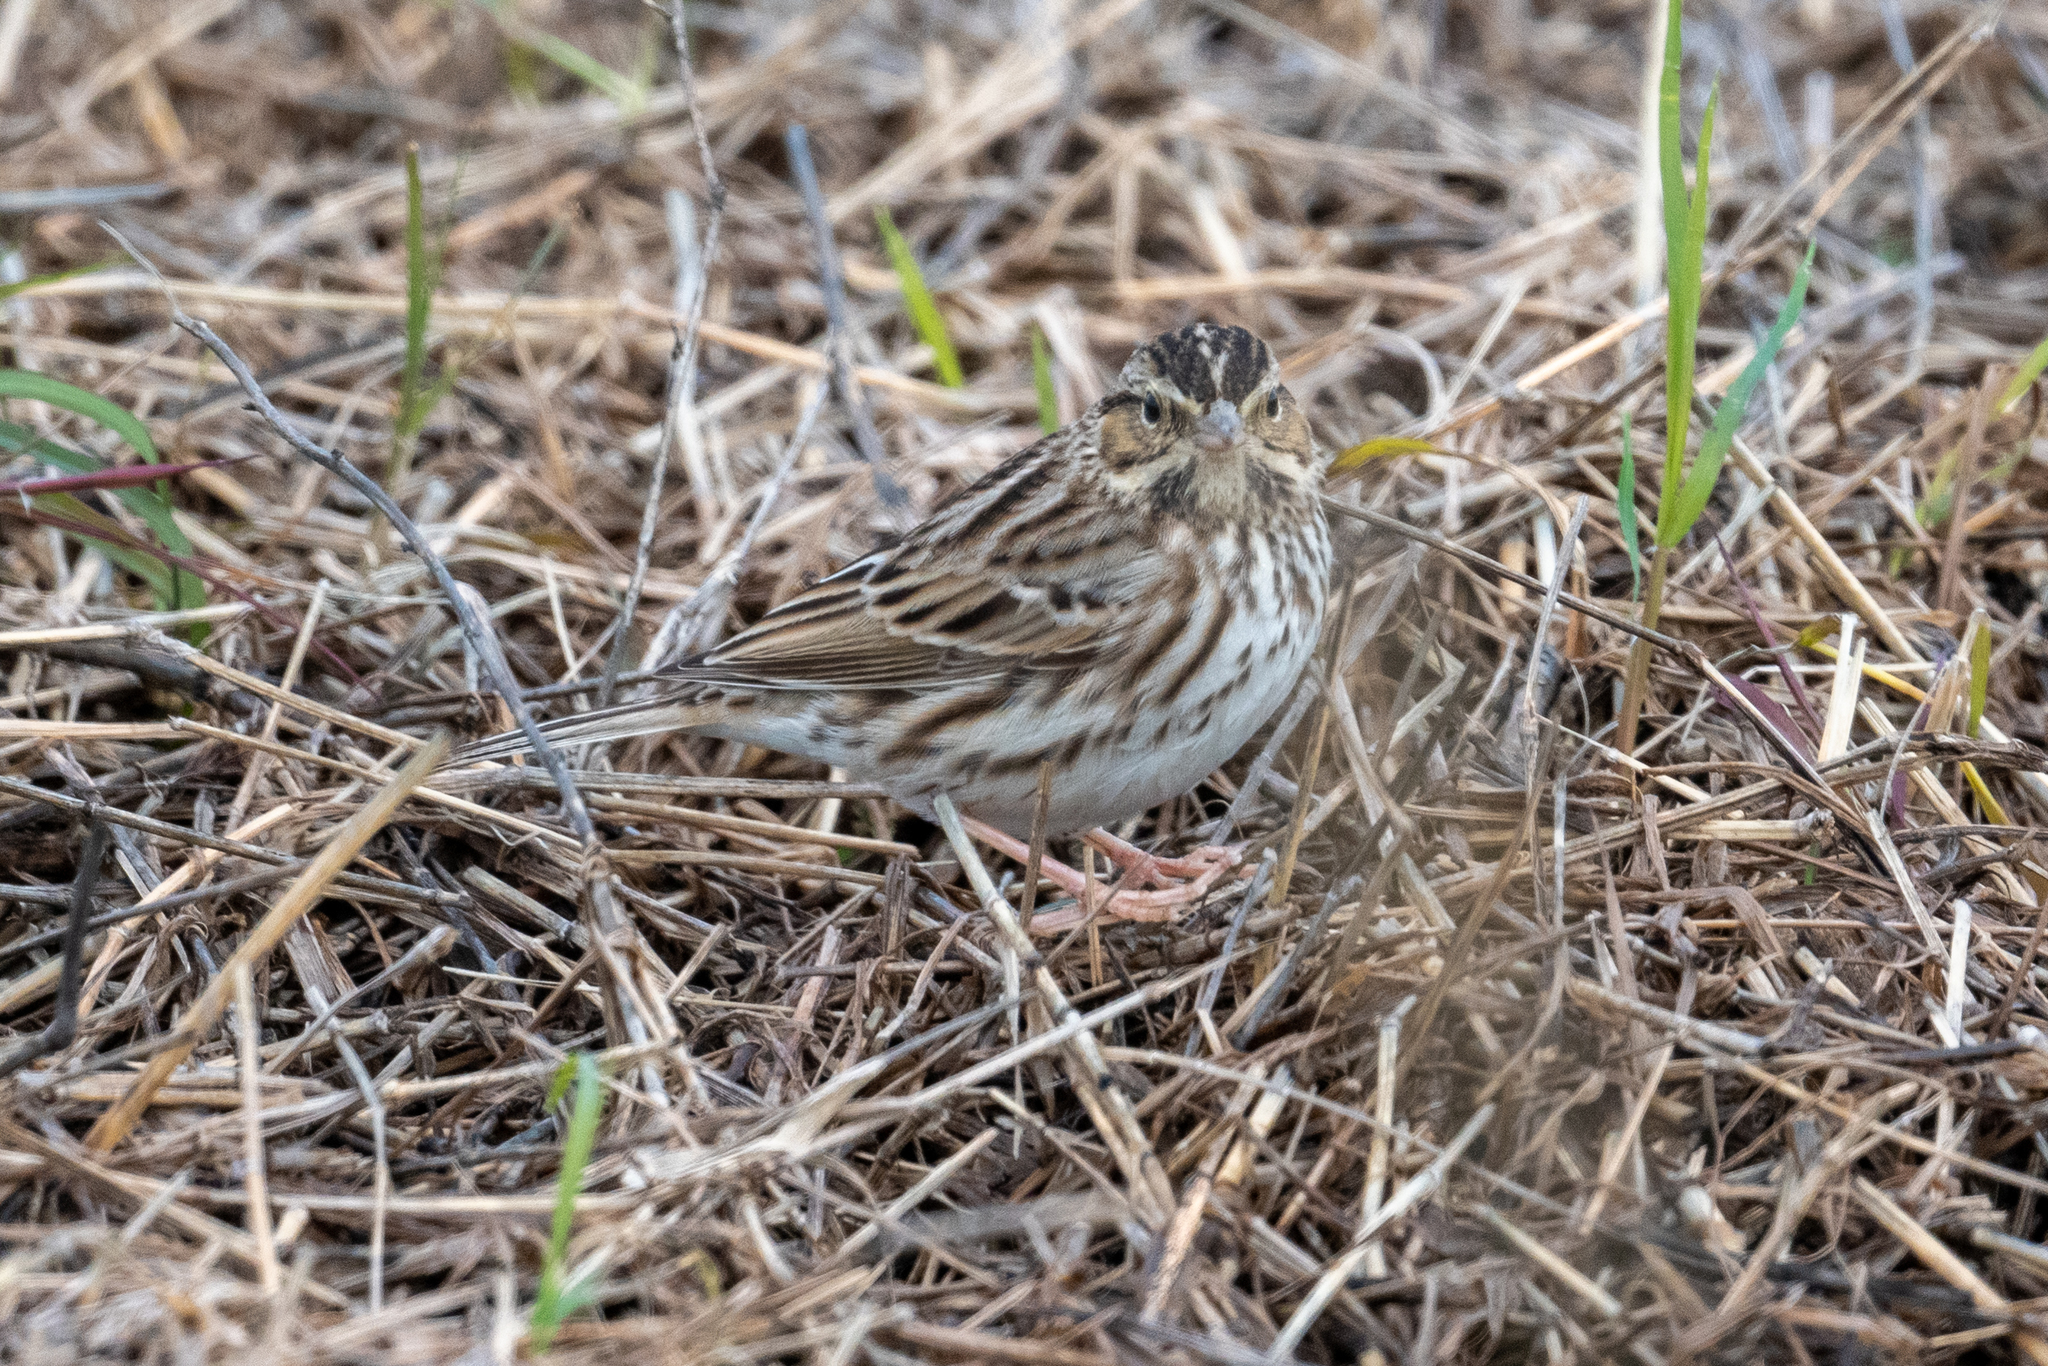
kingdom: Animalia
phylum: Chordata
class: Aves
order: Passeriformes
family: Passerellidae
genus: Passerculus
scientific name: Passerculus sandwichensis
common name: Savannah sparrow
